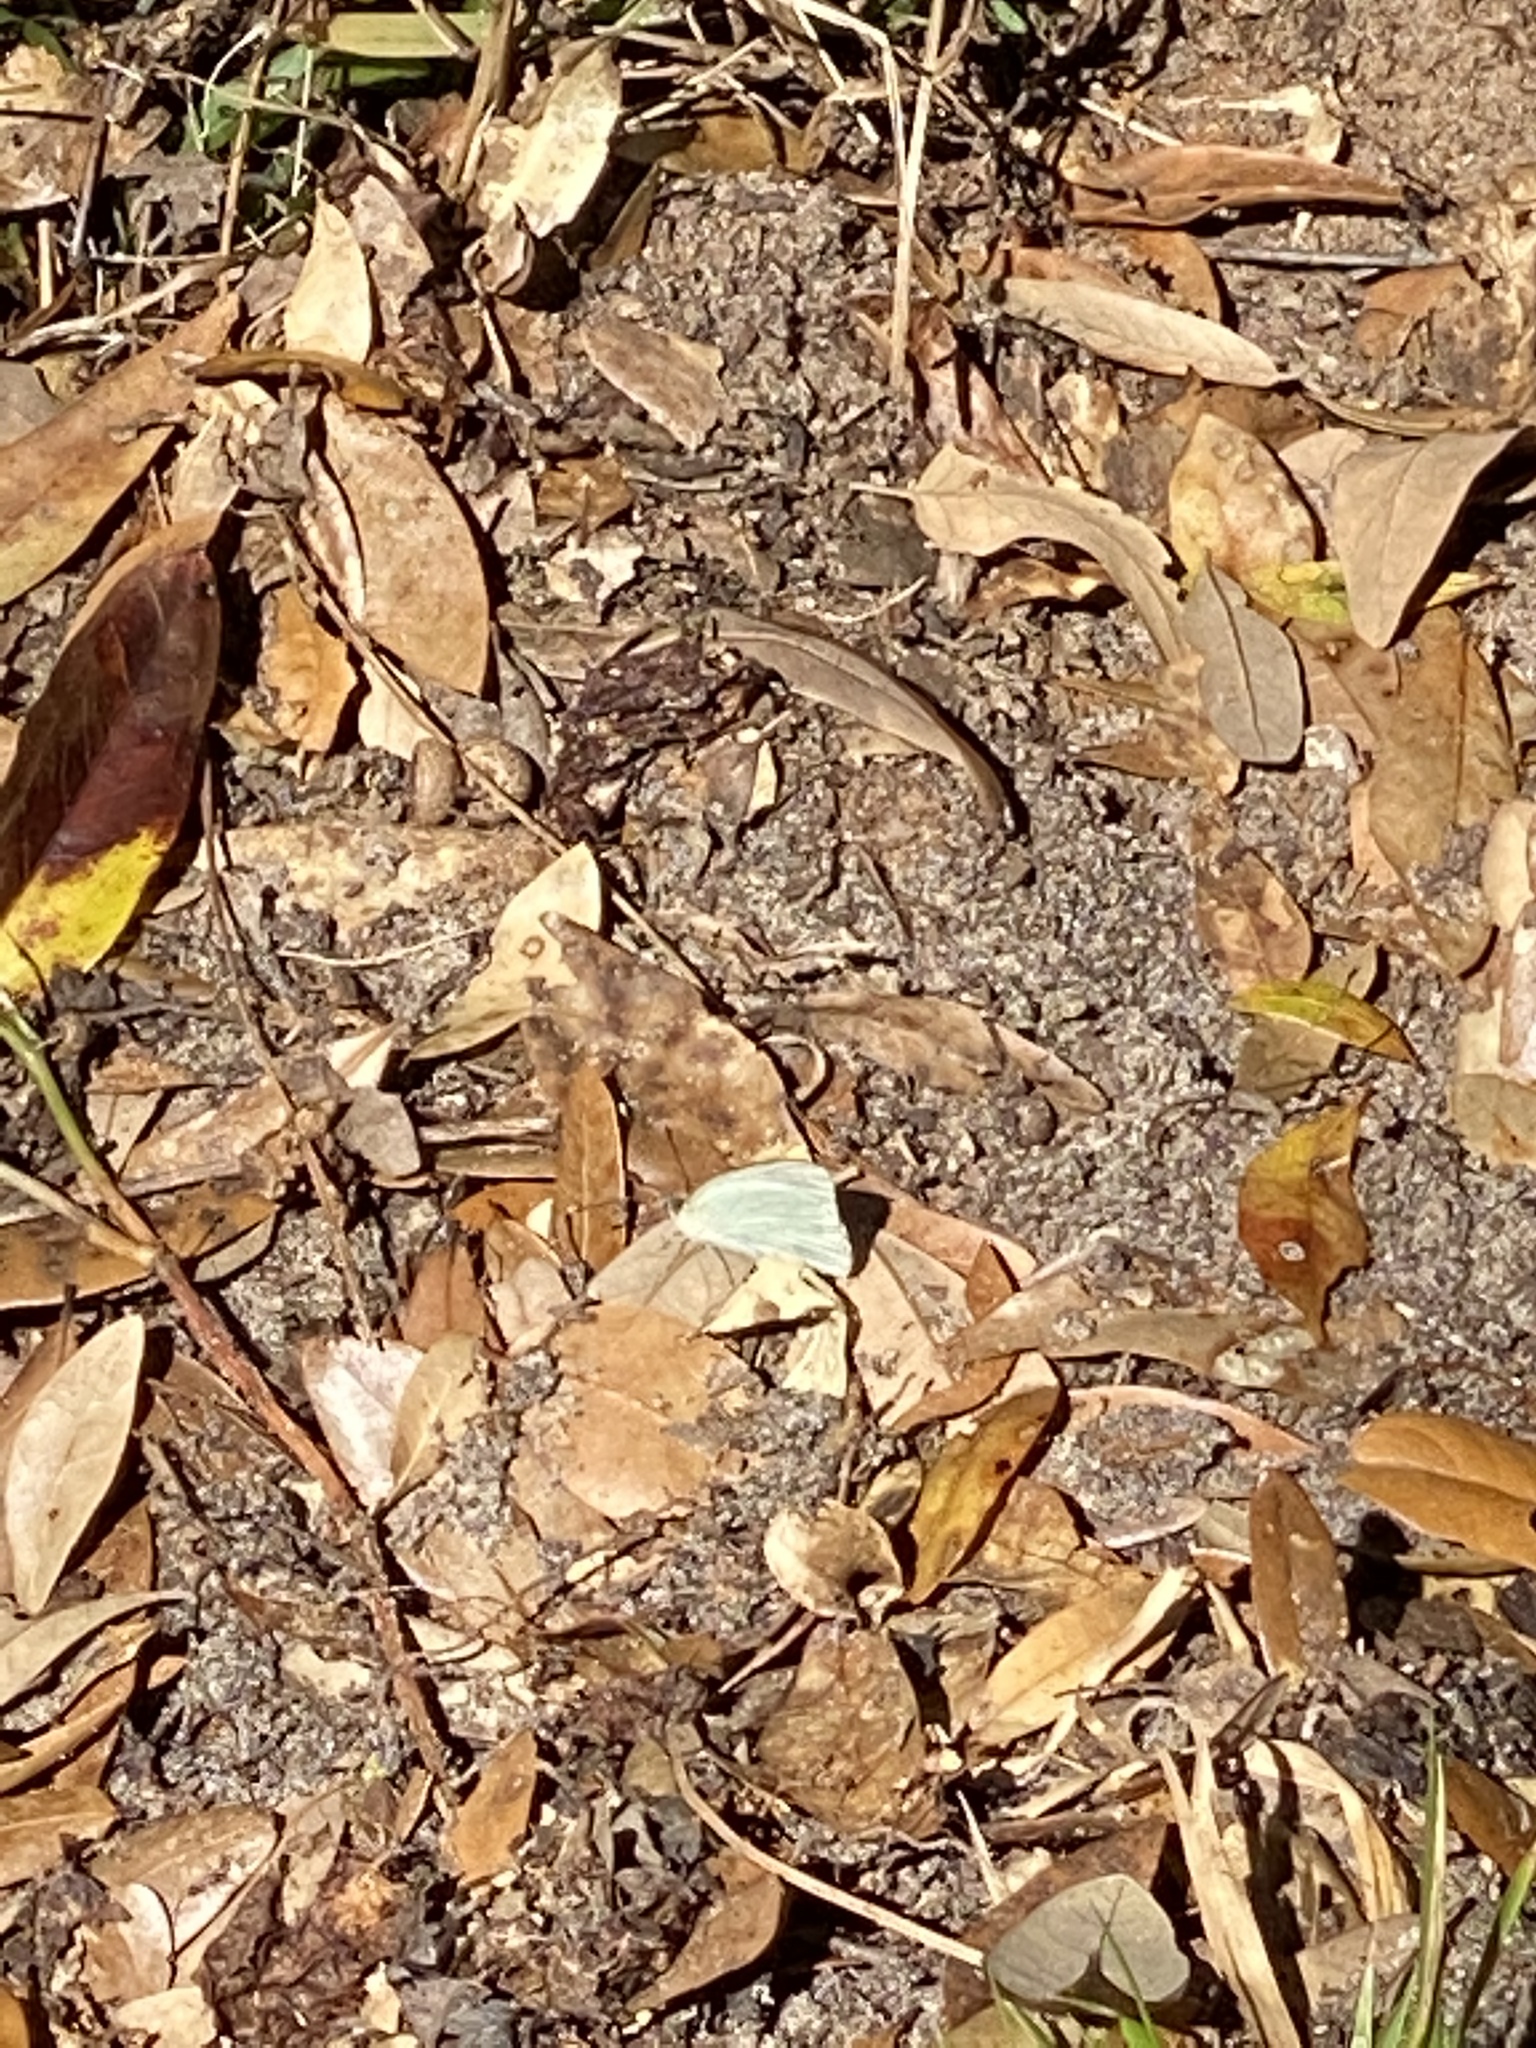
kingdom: Animalia
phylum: Arthropoda
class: Insecta
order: Lepidoptera
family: Pieridae
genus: Ascia
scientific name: Ascia monuste
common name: Great southern white
